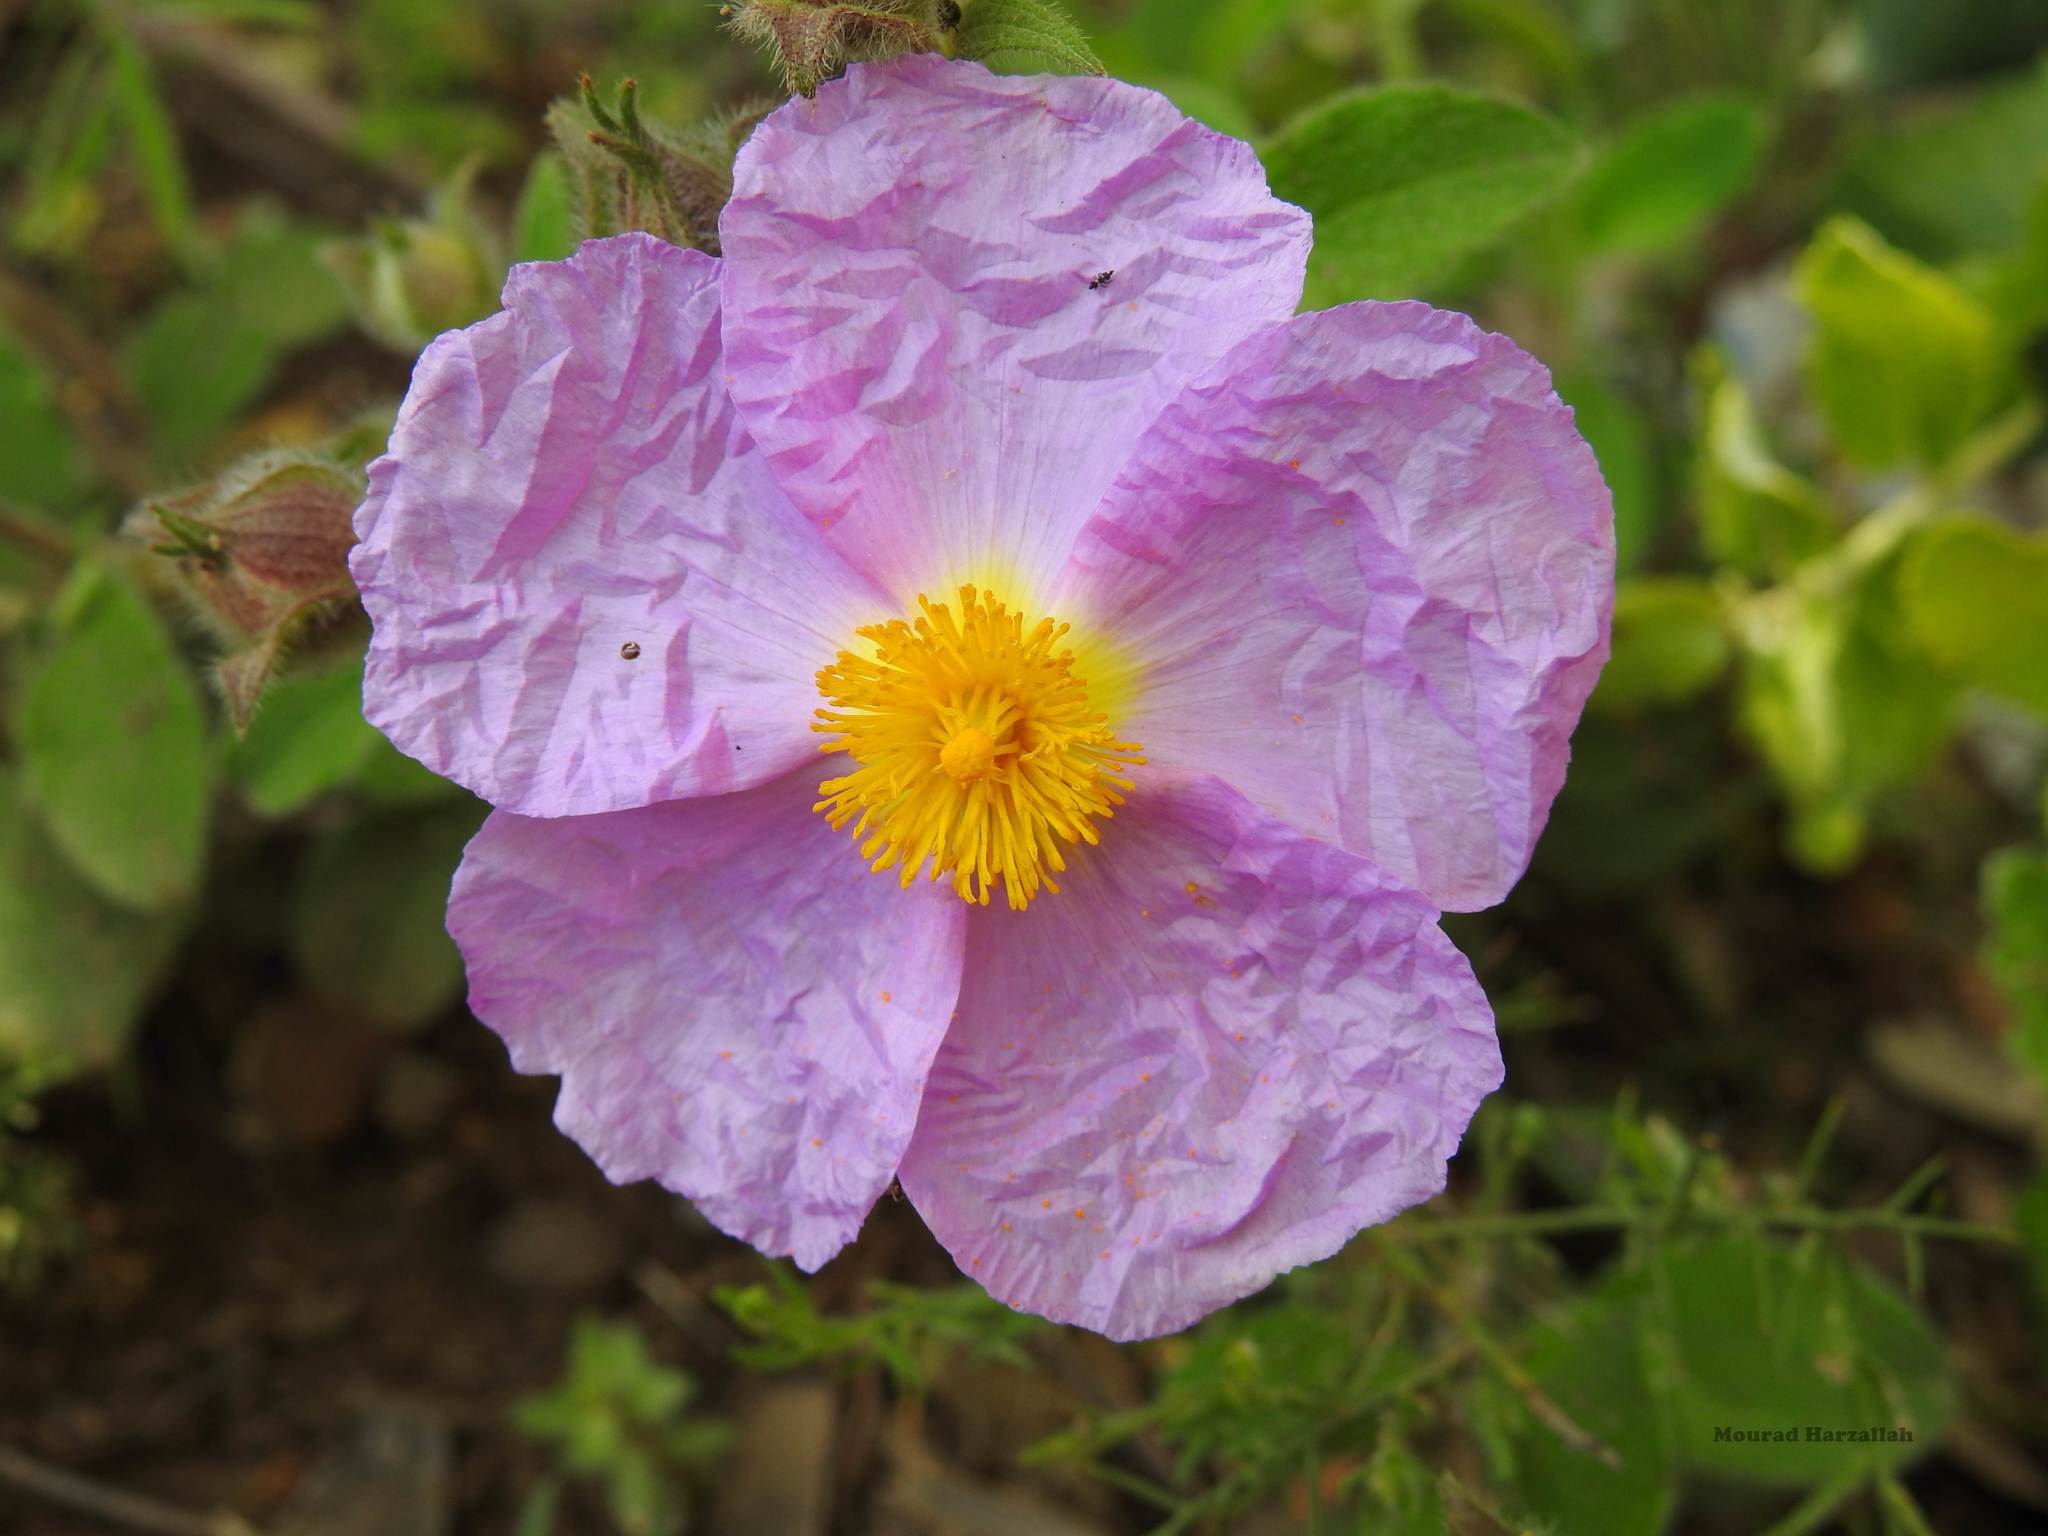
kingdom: Plantae
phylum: Tracheophyta
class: Magnoliopsida
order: Malvales
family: Cistaceae
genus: Cistus
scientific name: Cistus creticus
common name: Cretan rockrose
